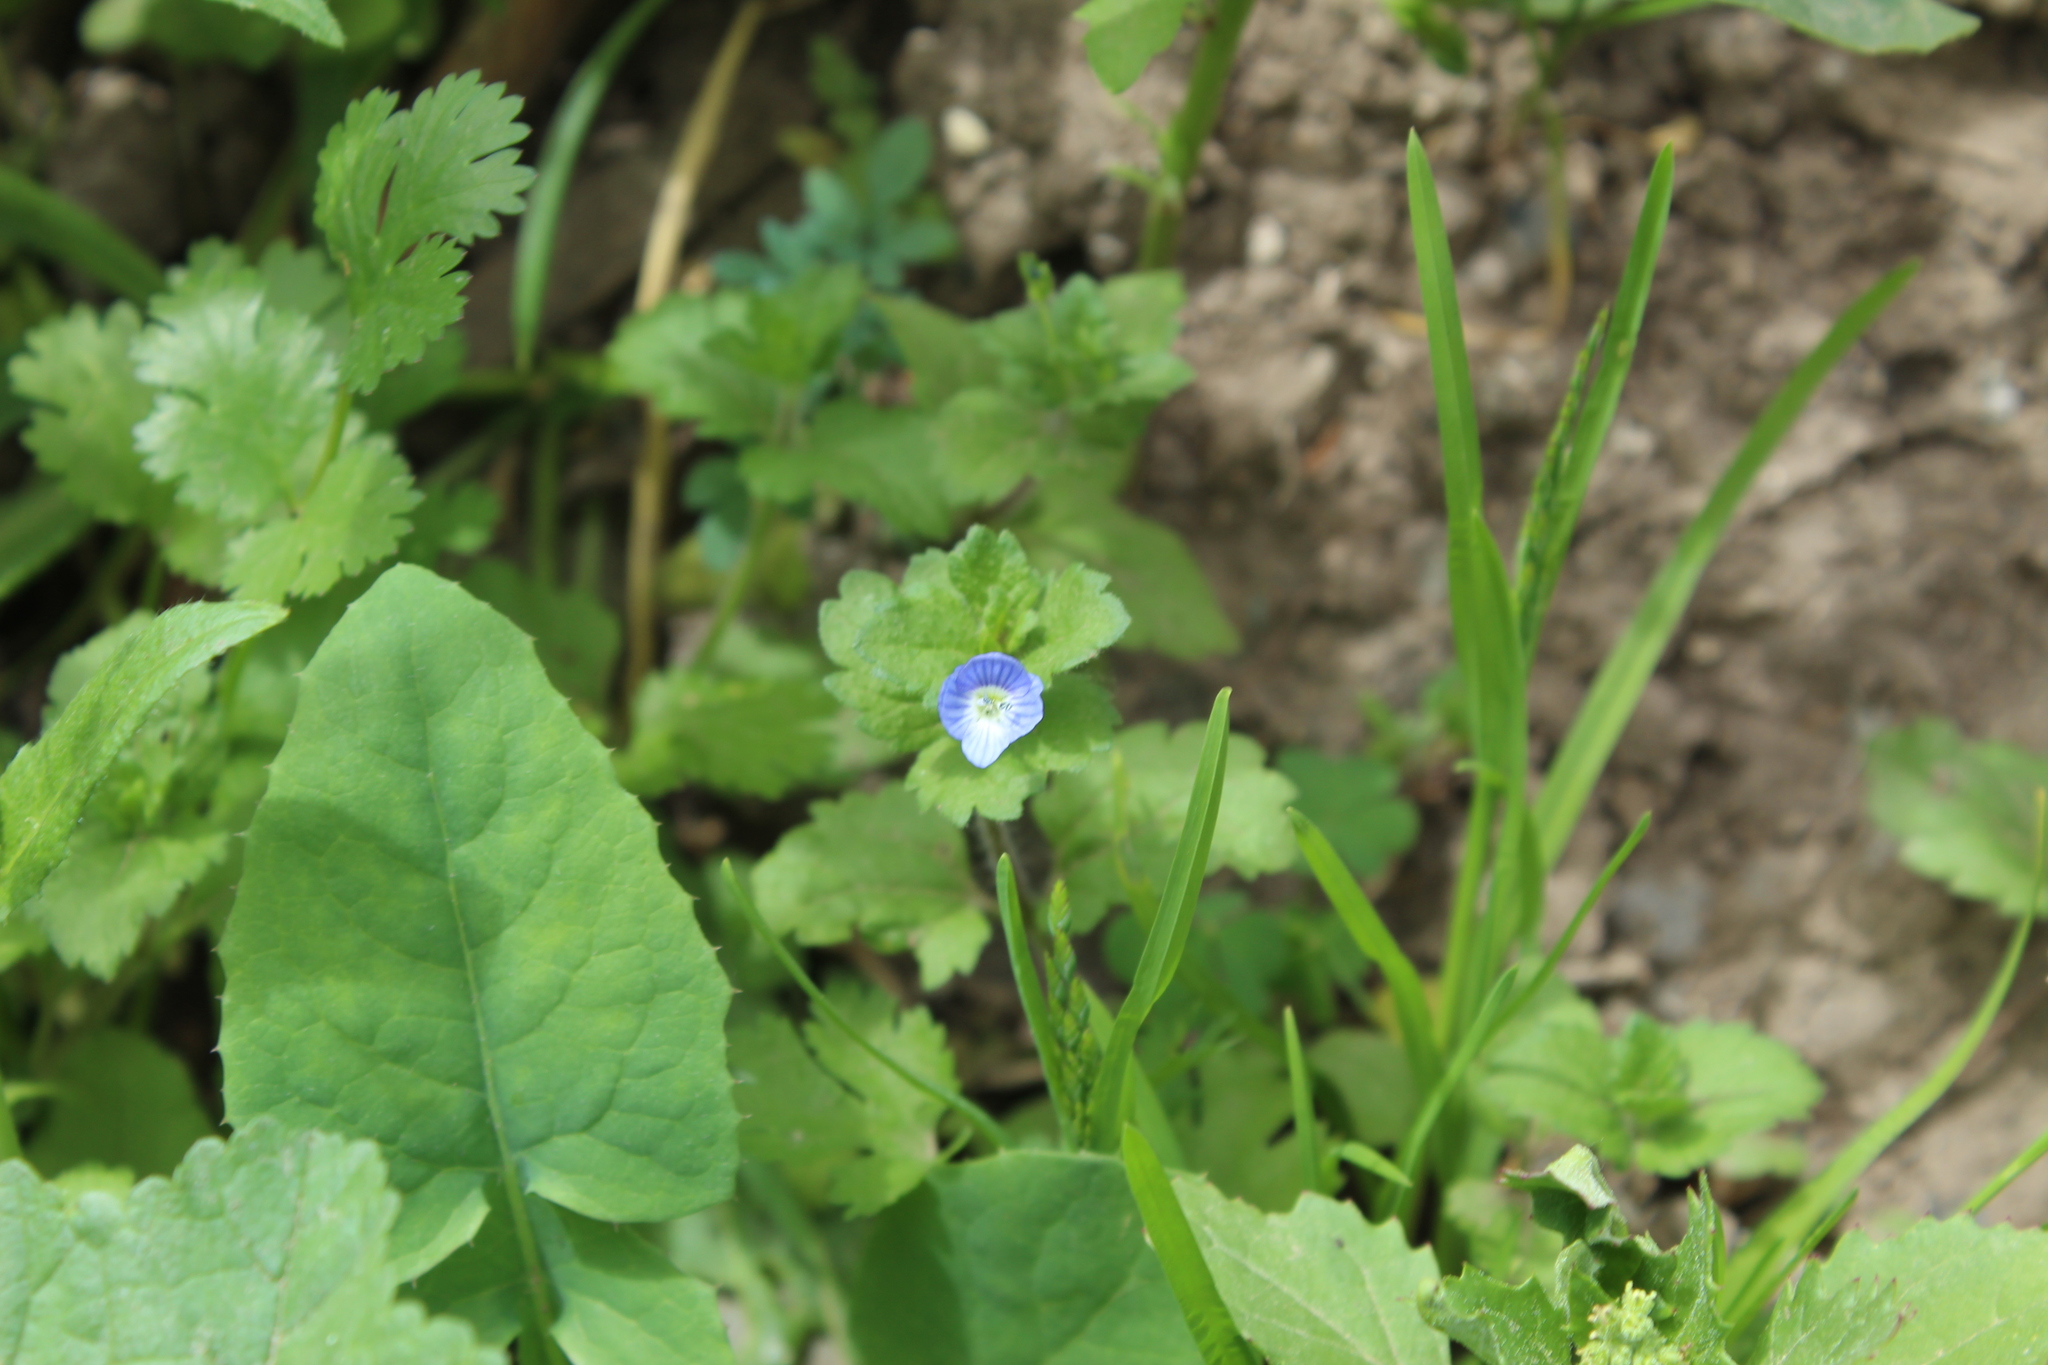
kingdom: Plantae
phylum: Tracheophyta
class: Magnoliopsida
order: Lamiales
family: Plantaginaceae
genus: Veronica
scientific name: Veronica persica
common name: Common field-speedwell
